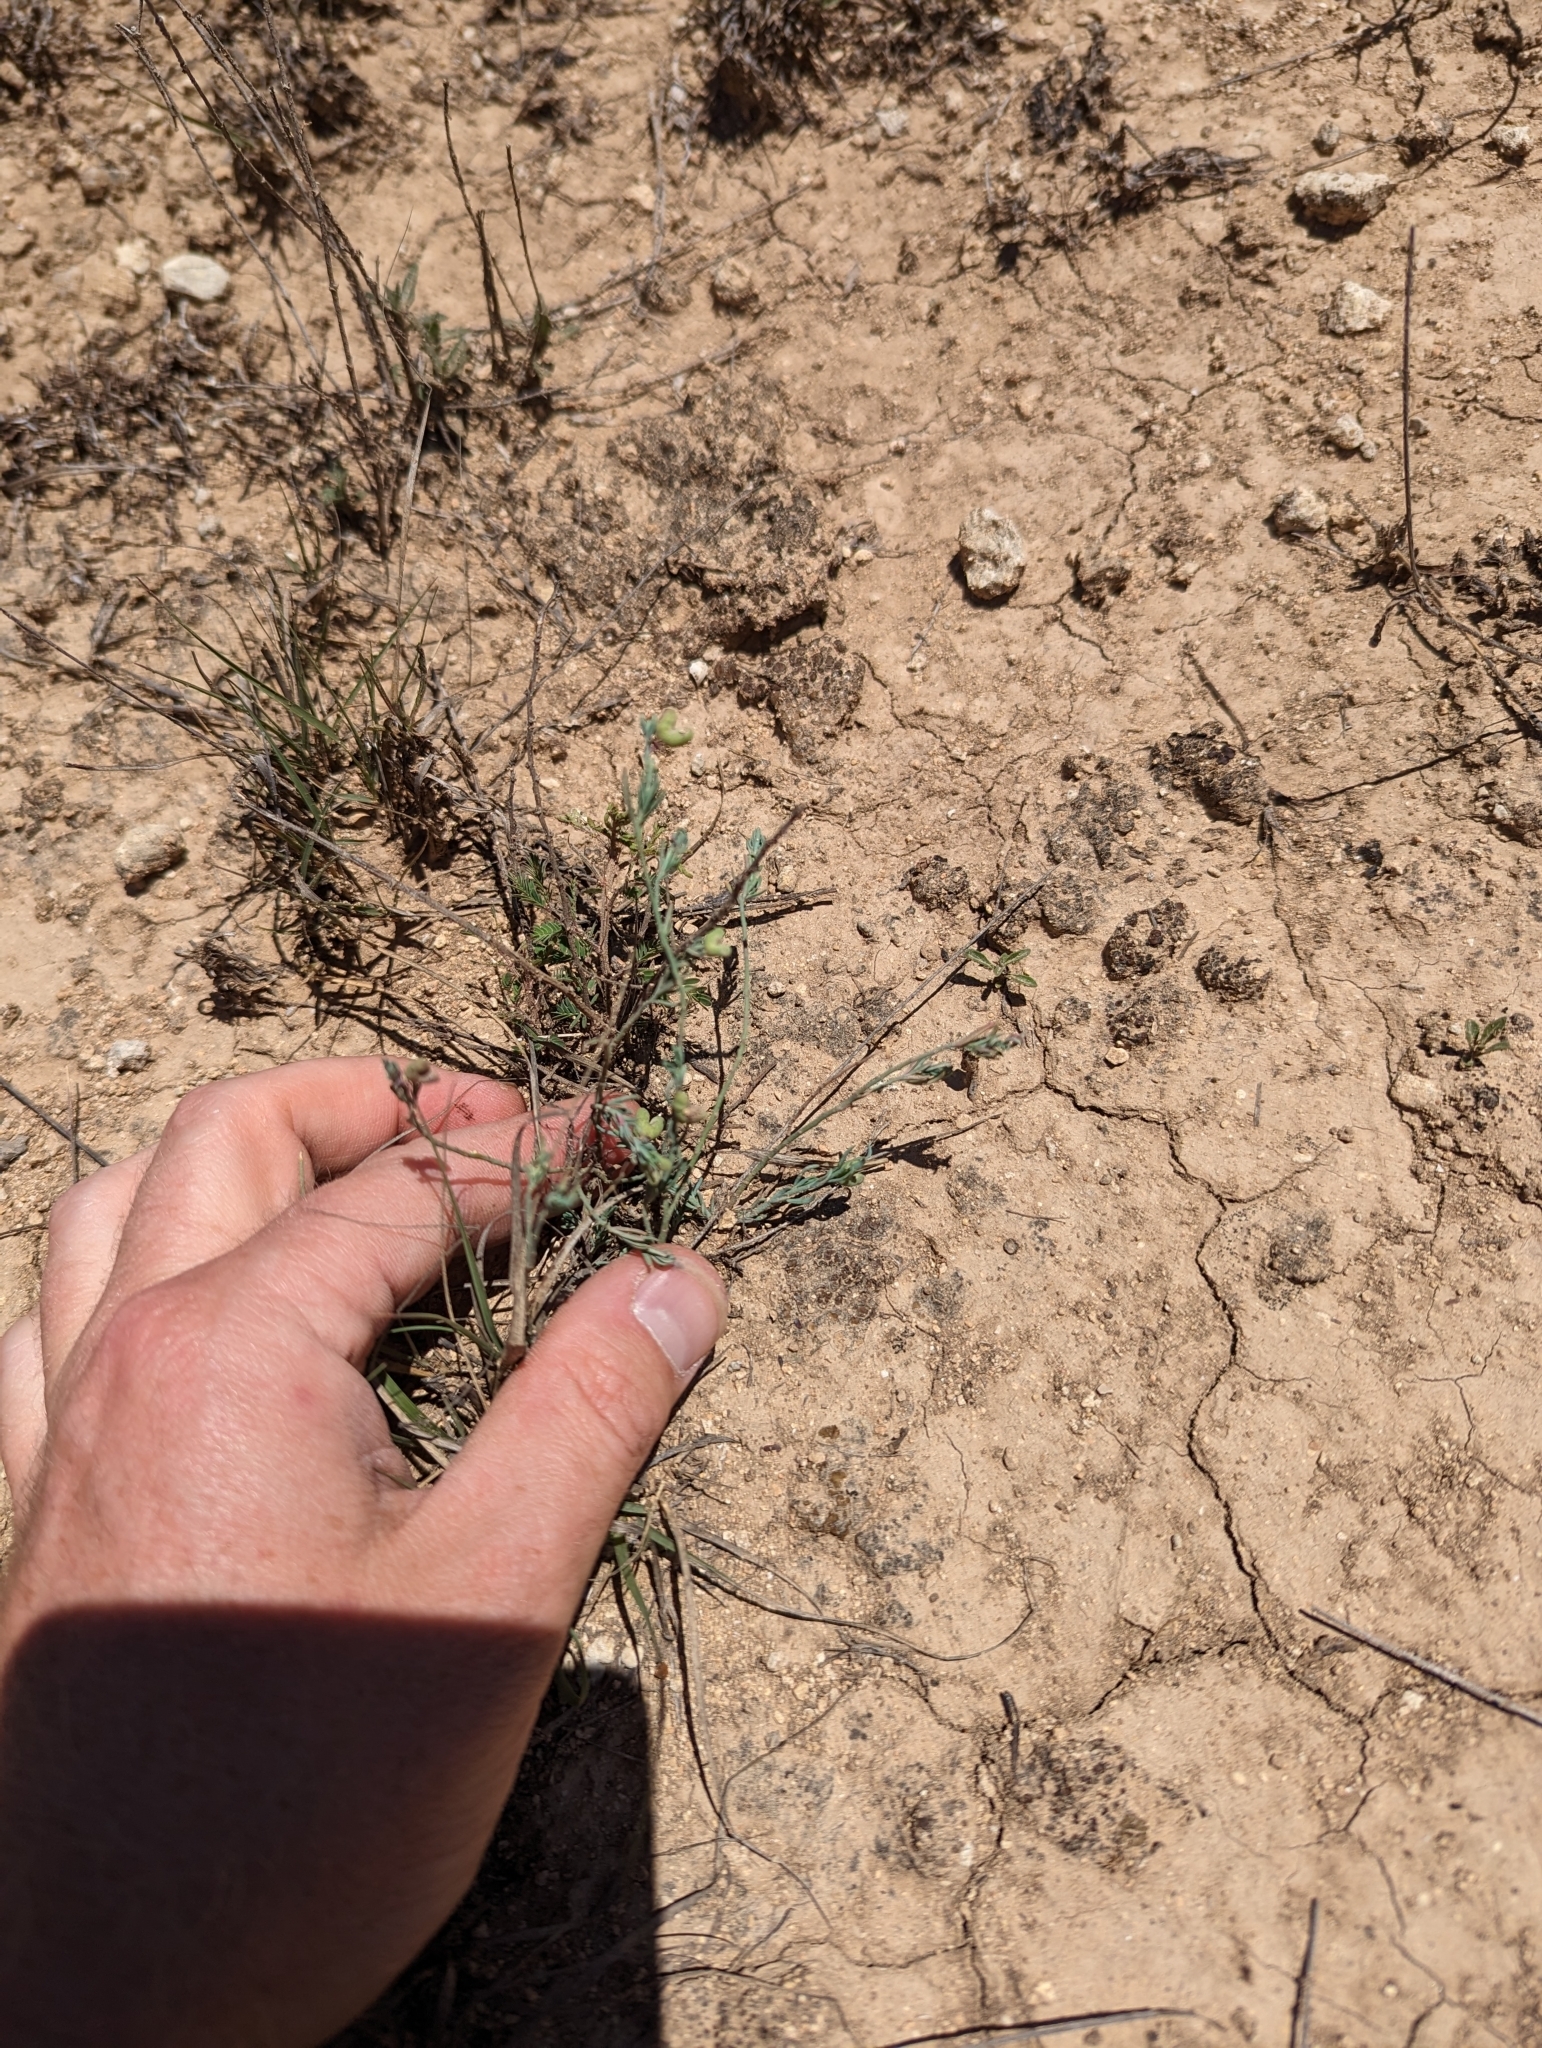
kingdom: Plantae
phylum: Tracheophyta
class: Magnoliopsida
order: Sapindales
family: Rutaceae
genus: Thamnosma
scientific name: Thamnosma texana
